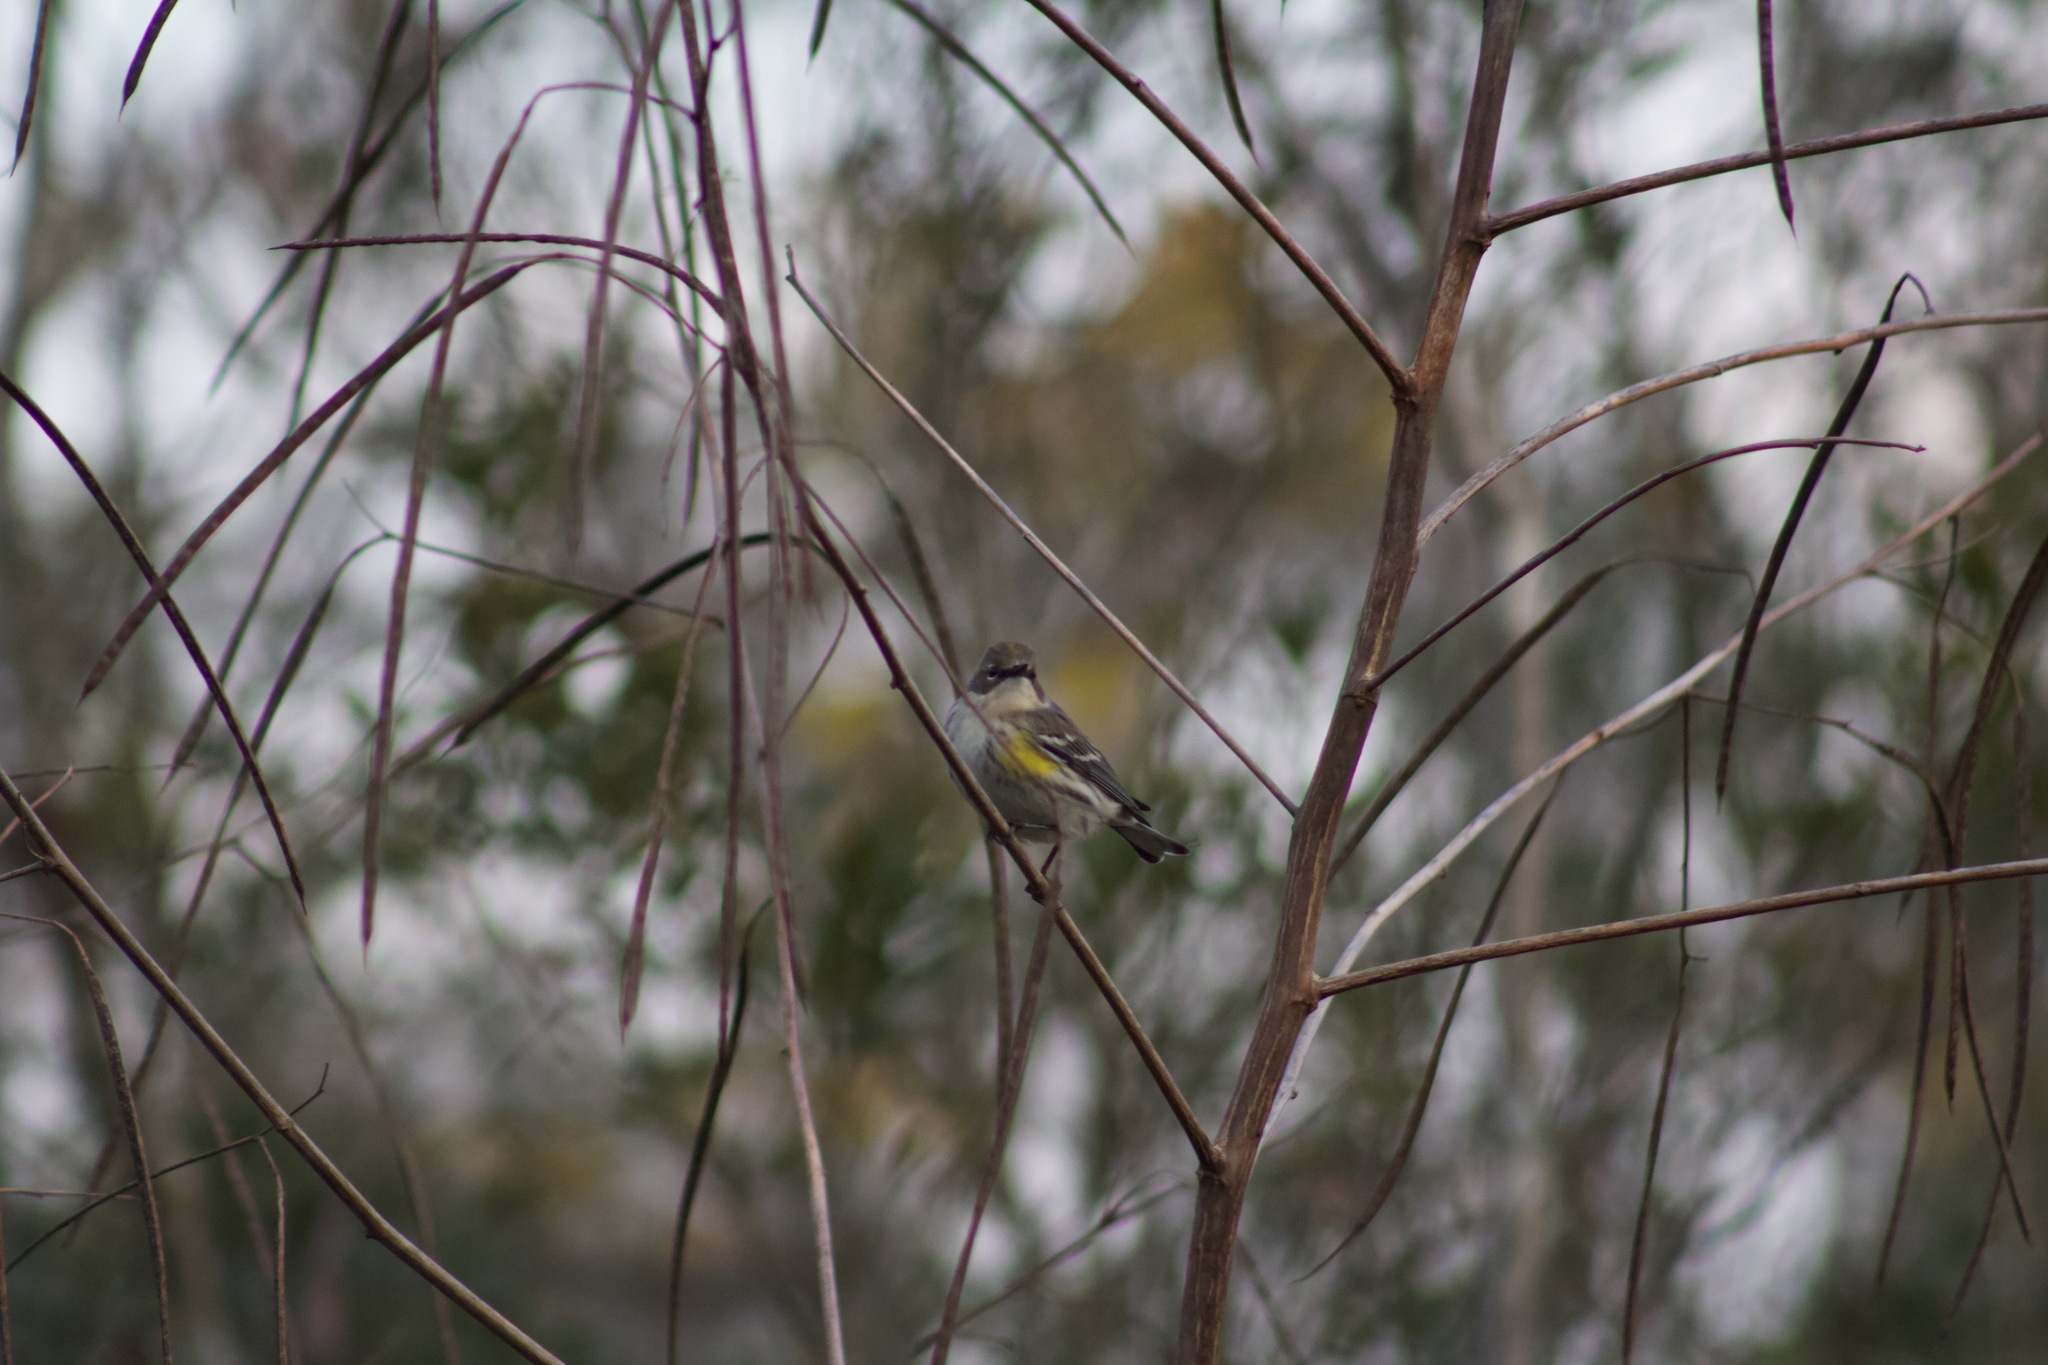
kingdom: Animalia
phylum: Chordata
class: Aves
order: Passeriformes
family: Parulidae
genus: Setophaga
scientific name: Setophaga coronata
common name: Myrtle warbler
